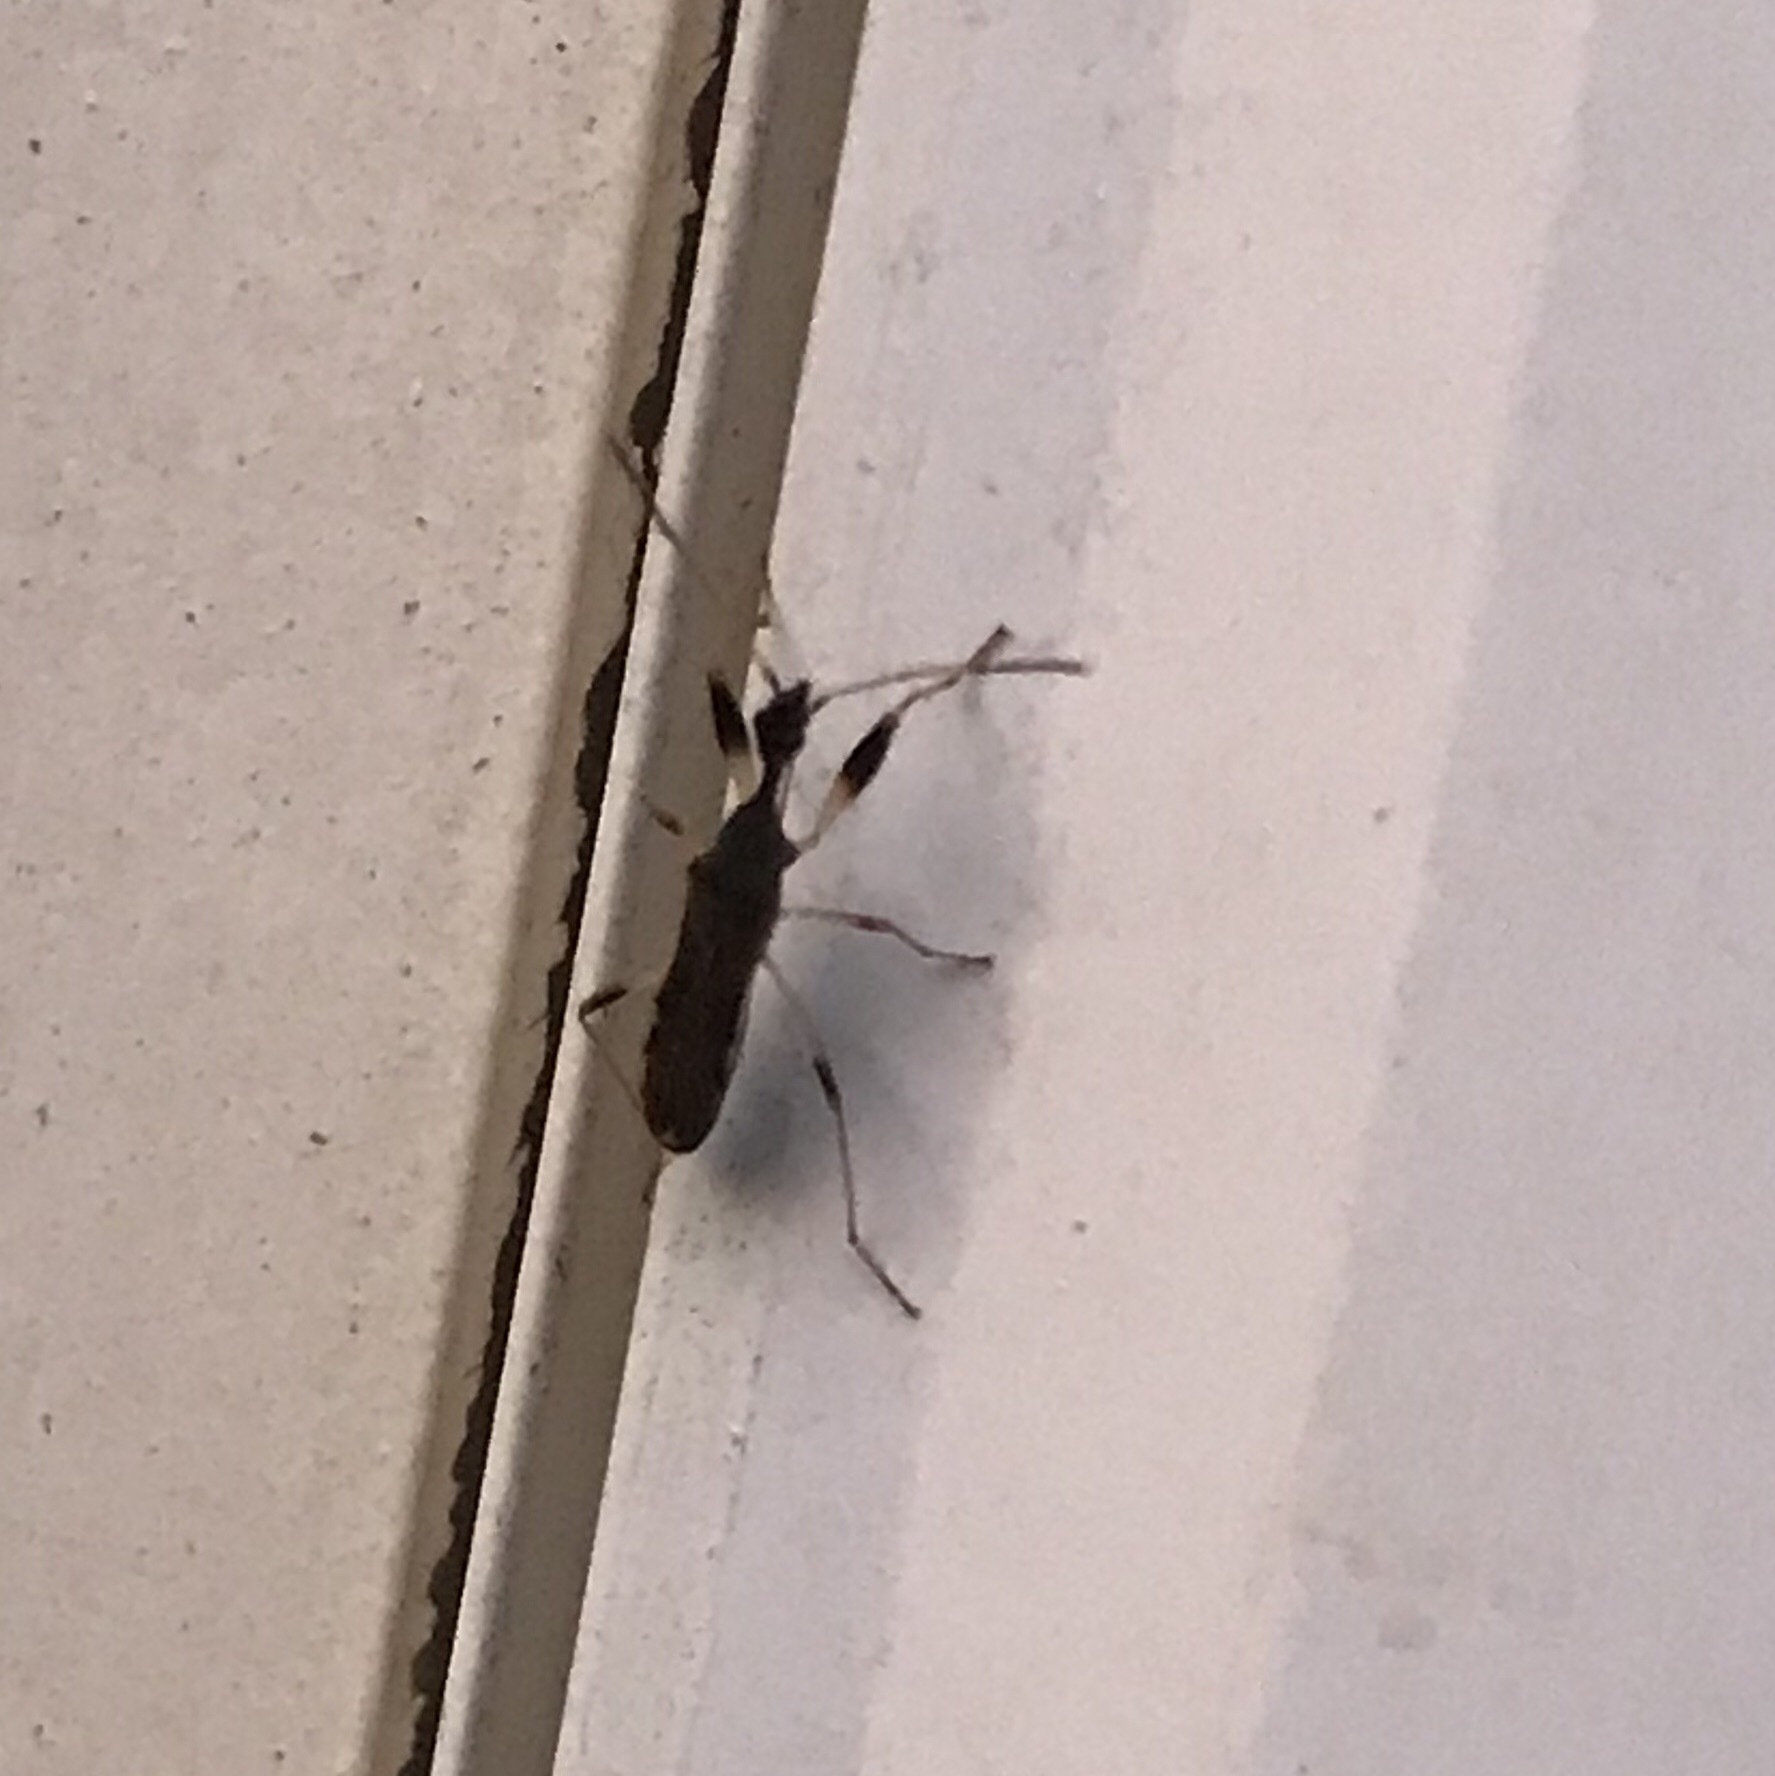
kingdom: Animalia
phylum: Arthropoda
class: Insecta
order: Hemiptera
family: Rhyparochromidae
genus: Myodocha
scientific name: Myodocha serripes
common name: Long-necked seed bug
